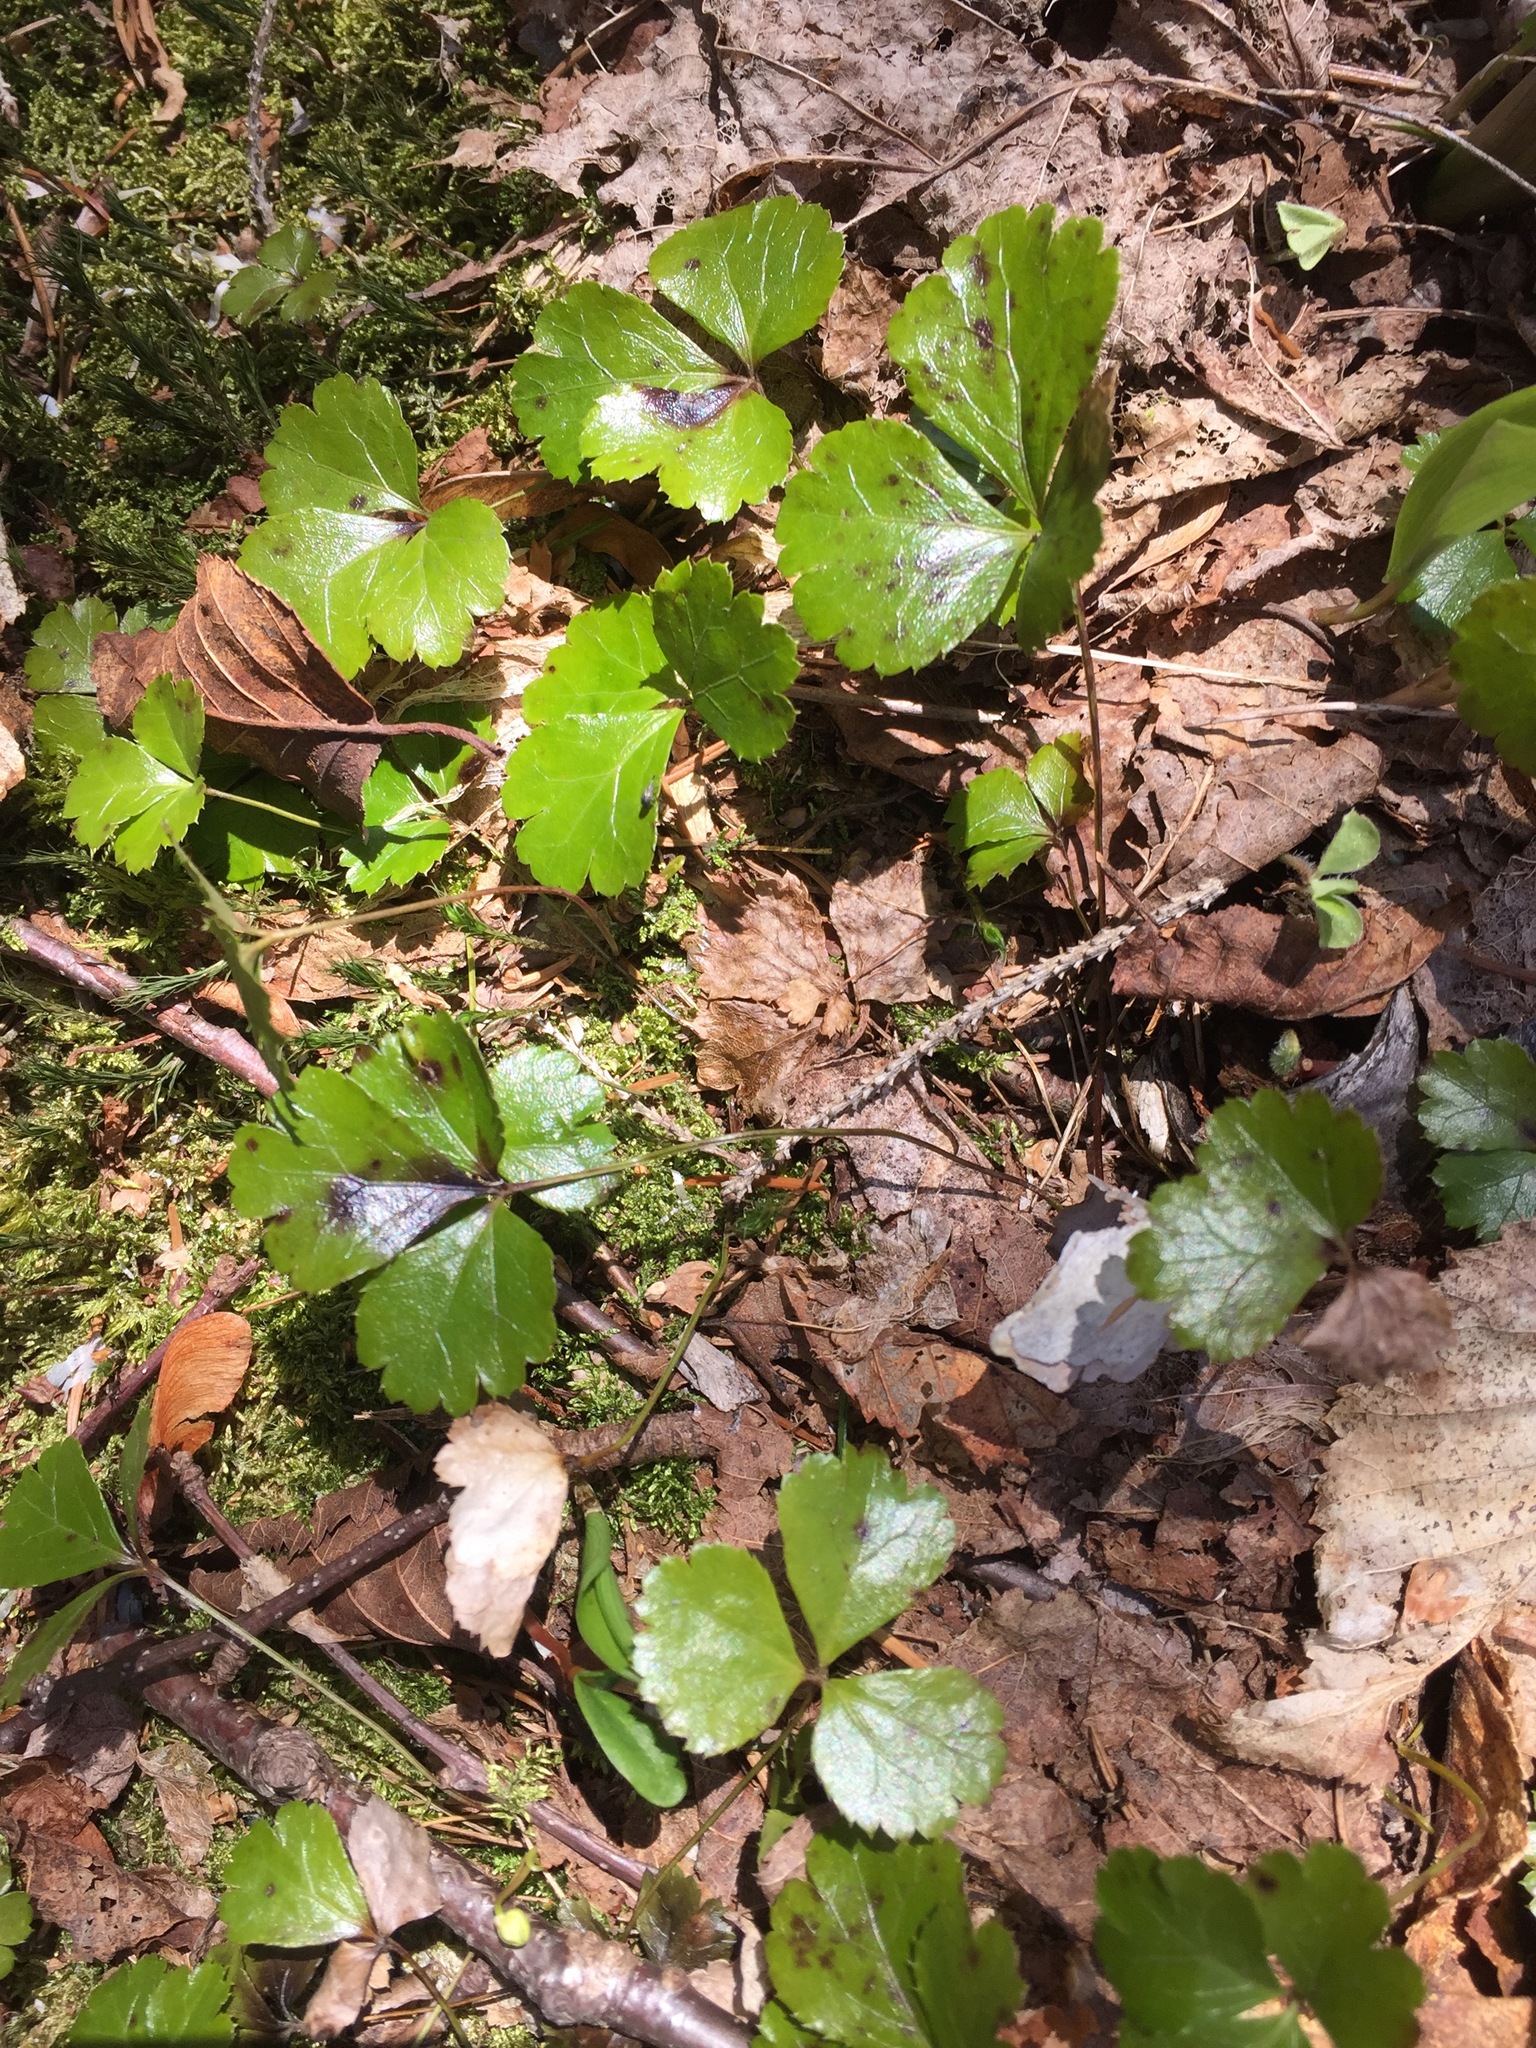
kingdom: Plantae
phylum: Tracheophyta
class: Magnoliopsida
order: Ranunculales
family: Ranunculaceae
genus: Coptis
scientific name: Coptis trifolia
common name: Canker-root
